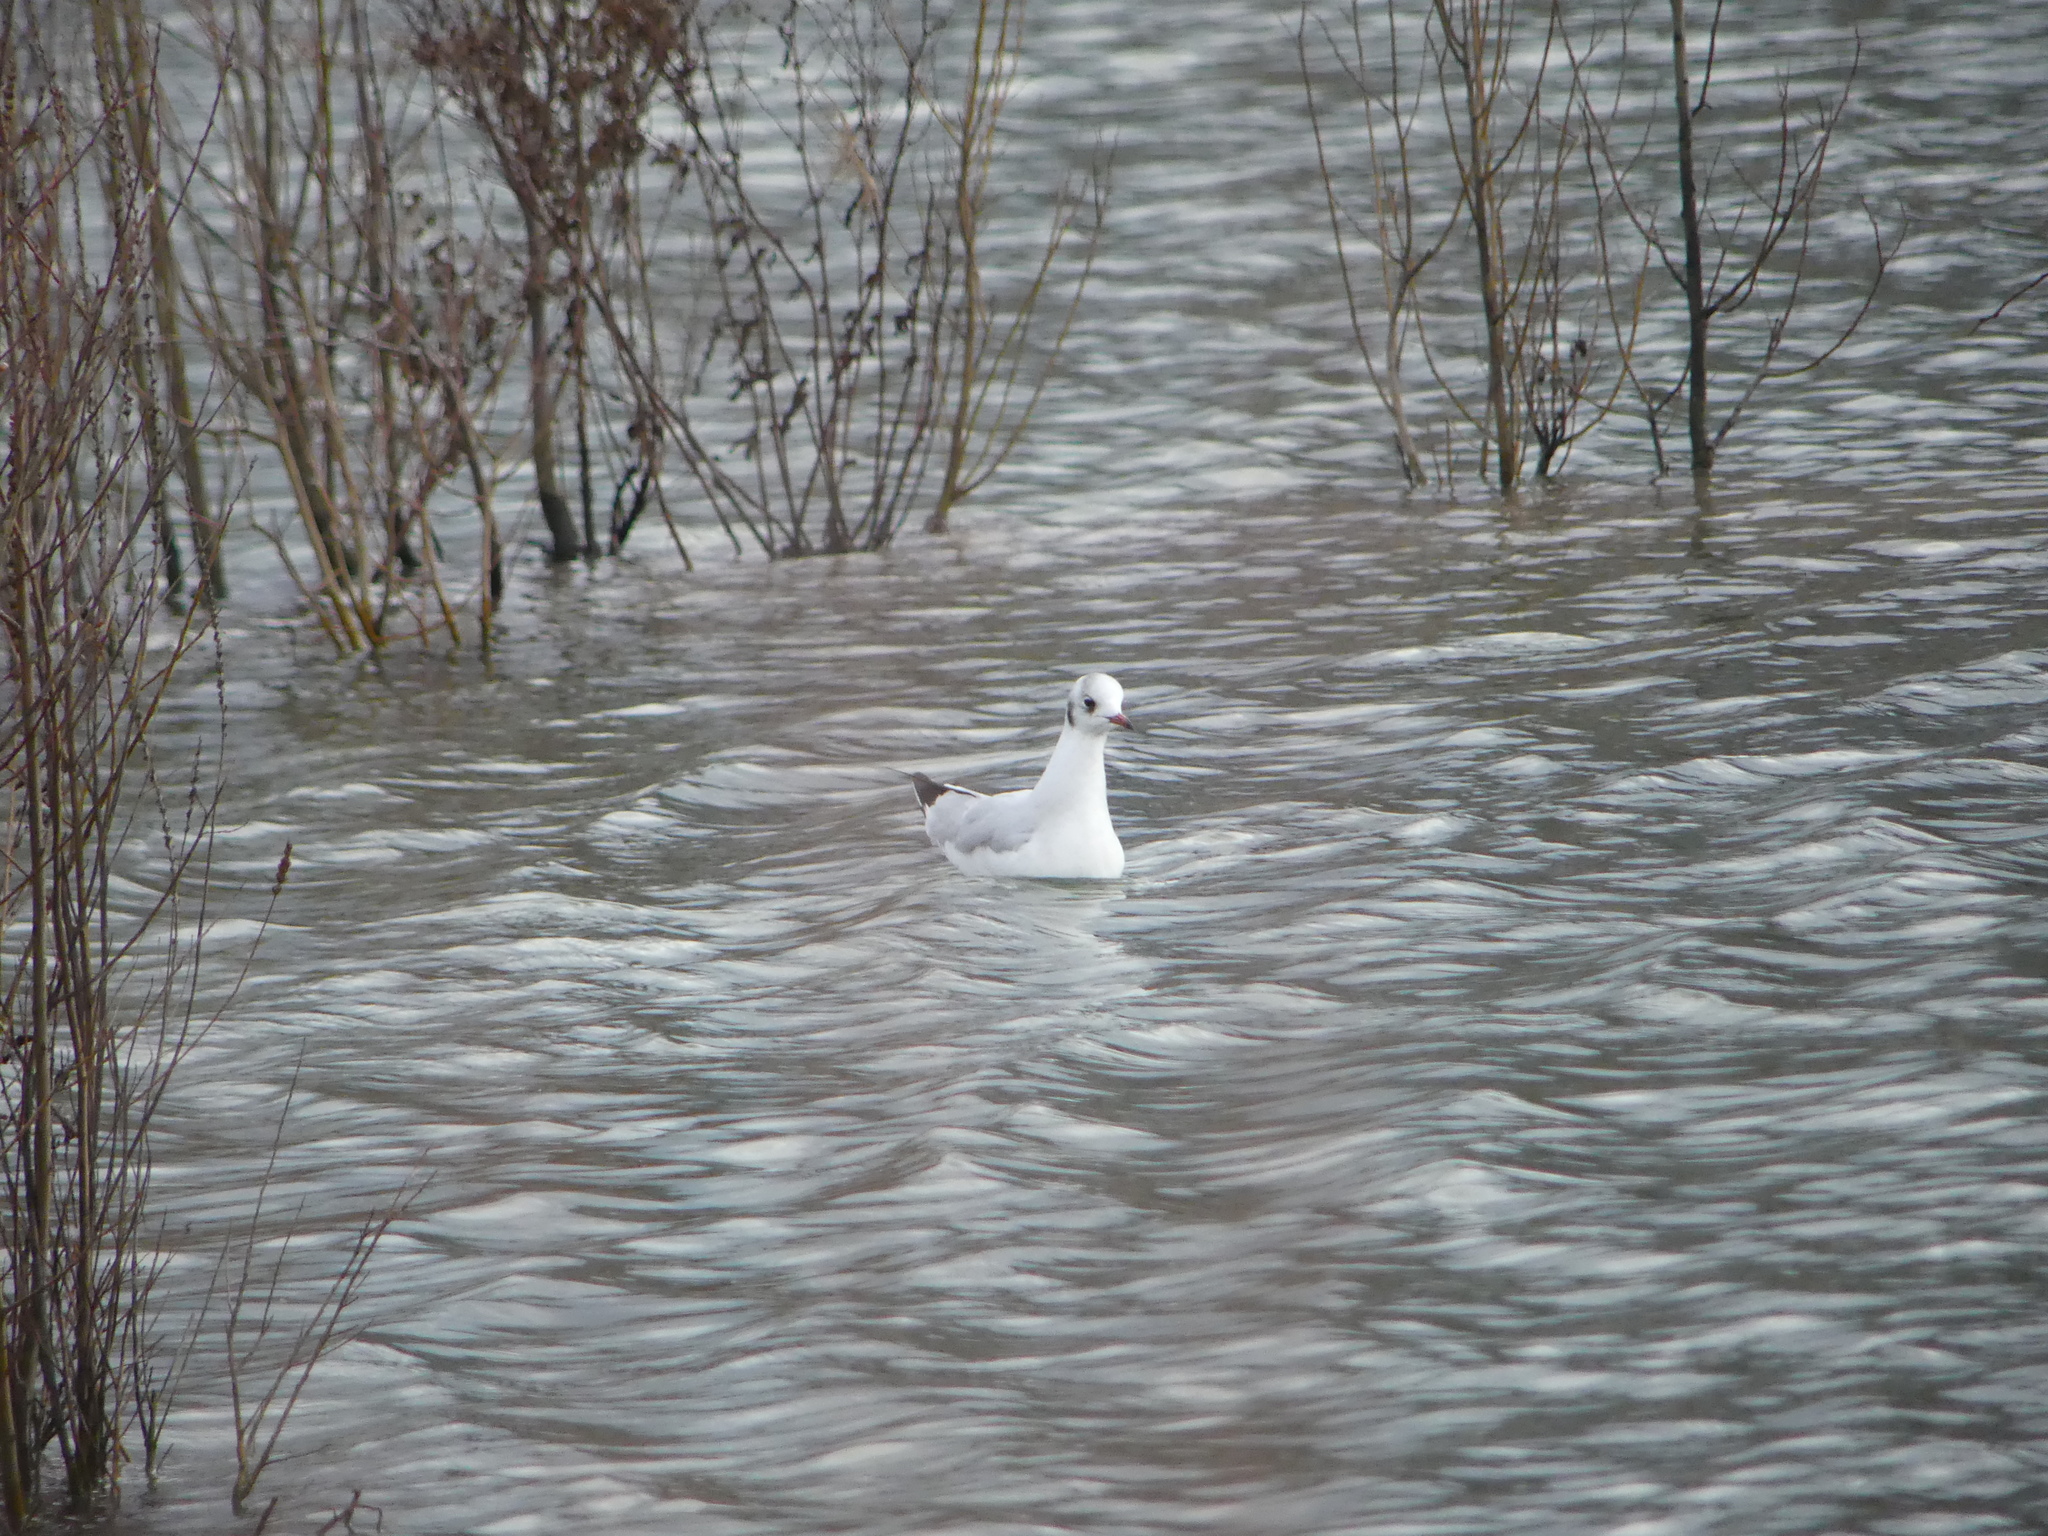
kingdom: Animalia
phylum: Chordata
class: Aves
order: Charadriiformes
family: Laridae
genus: Chroicocephalus
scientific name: Chroicocephalus ridibundus
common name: Black-headed gull
